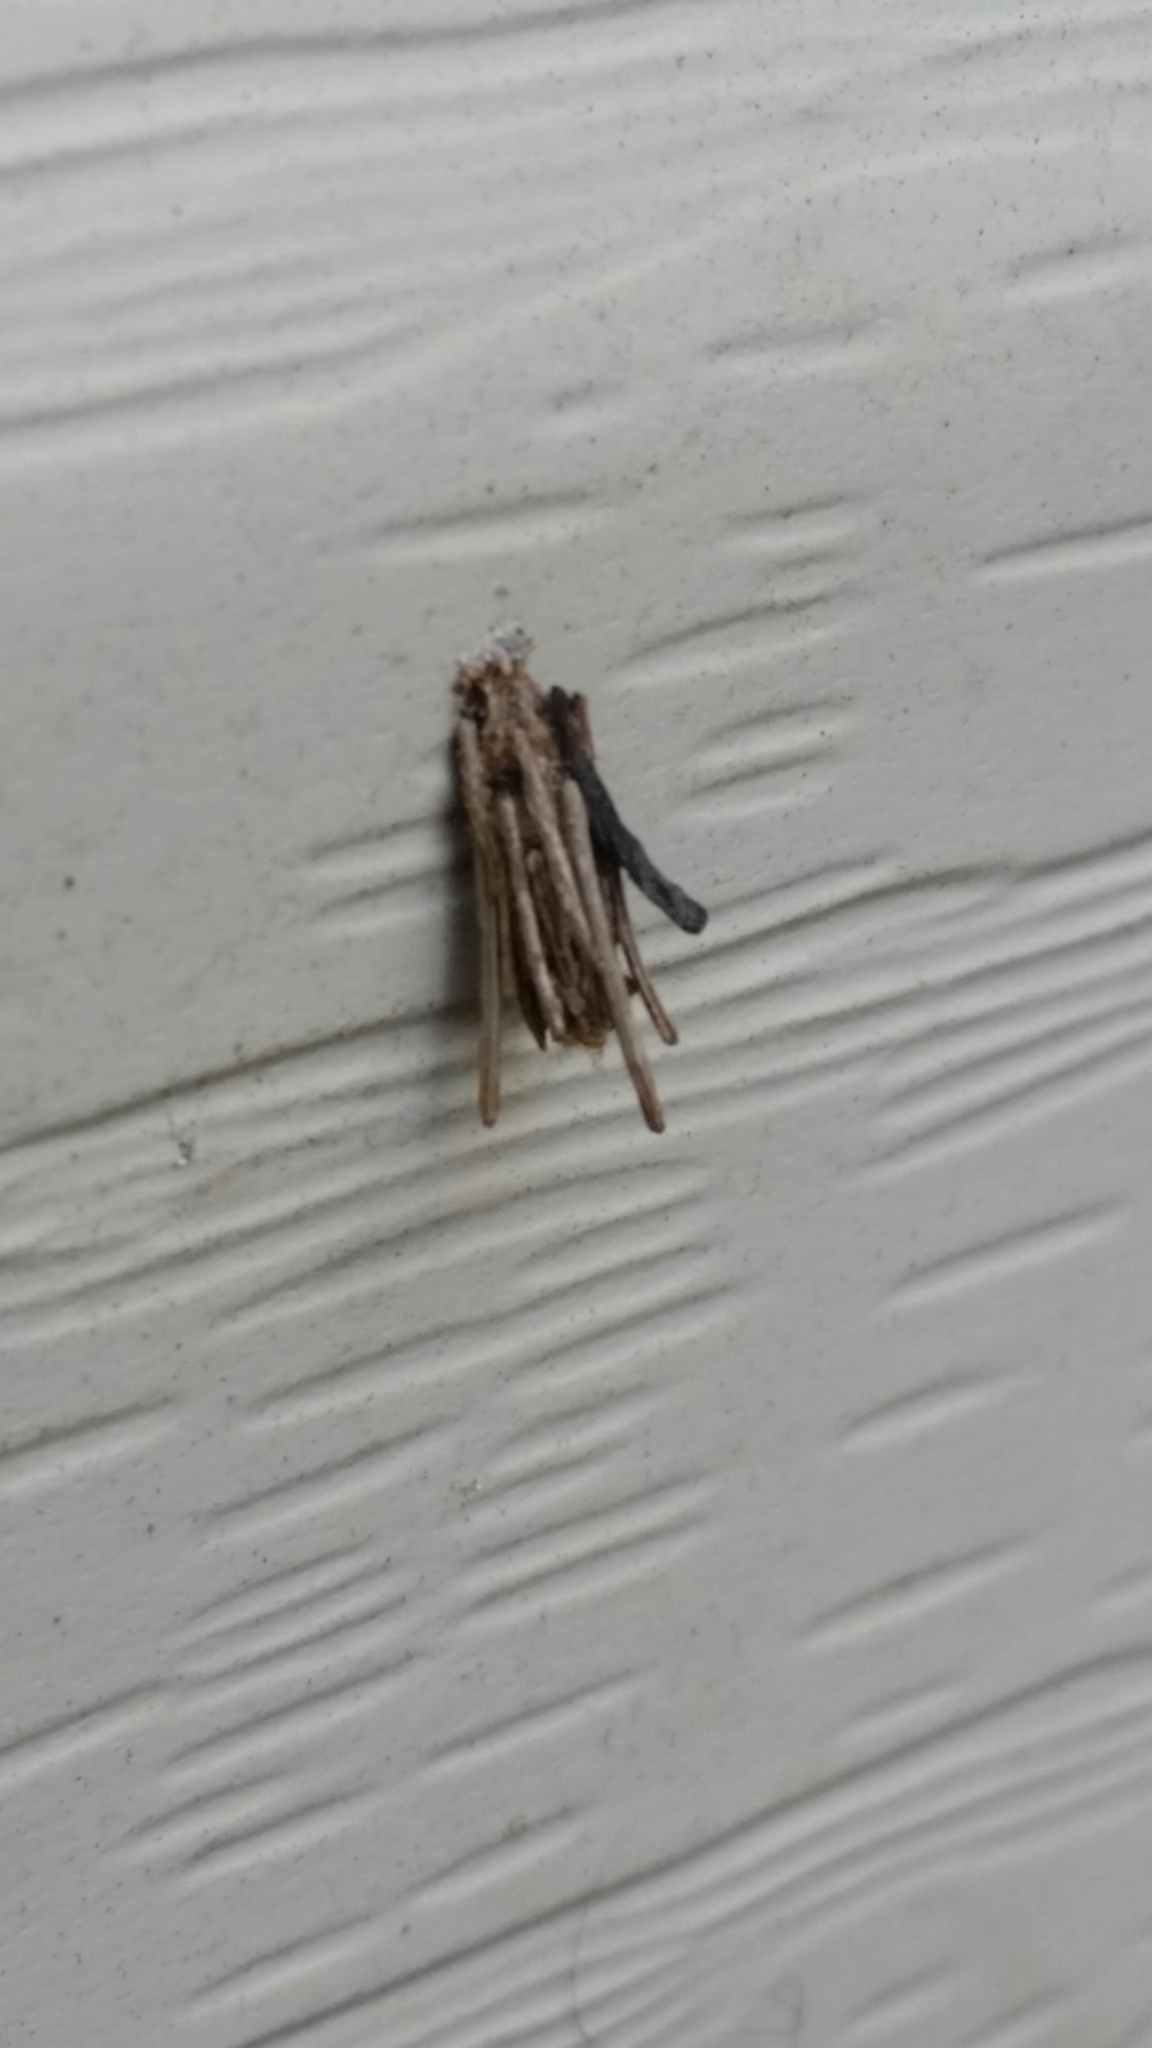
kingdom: Animalia
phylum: Arthropoda
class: Insecta
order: Lepidoptera
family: Psychidae
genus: Psyche
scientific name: Psyche casta
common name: Common sweep
